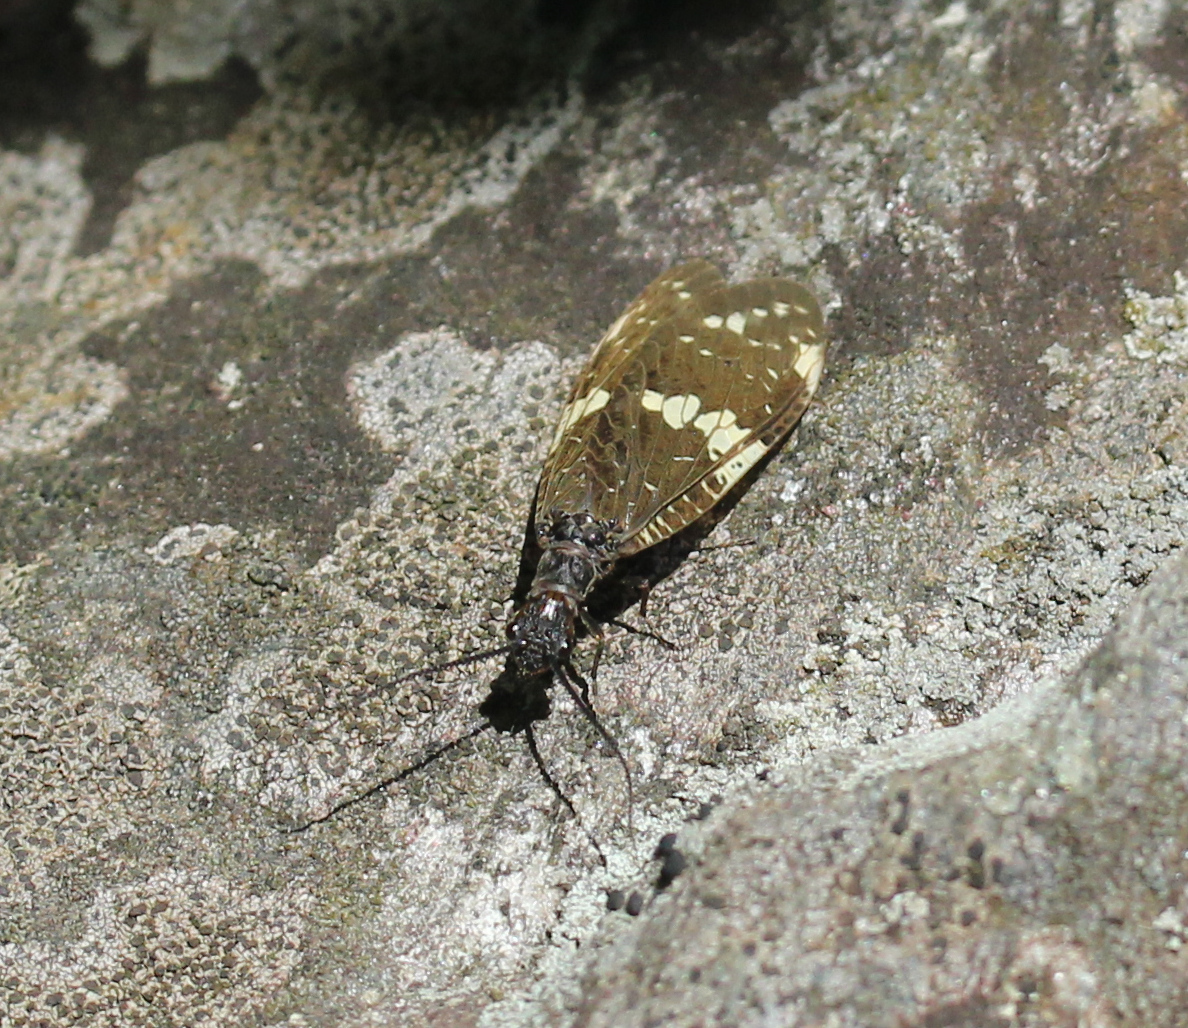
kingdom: Animalia
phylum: Arthropoda
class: Insecta
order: Megaloptera
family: Corydalidae
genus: Nigronia
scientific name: Nigronia serricornis
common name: Serrate dark fishfly
